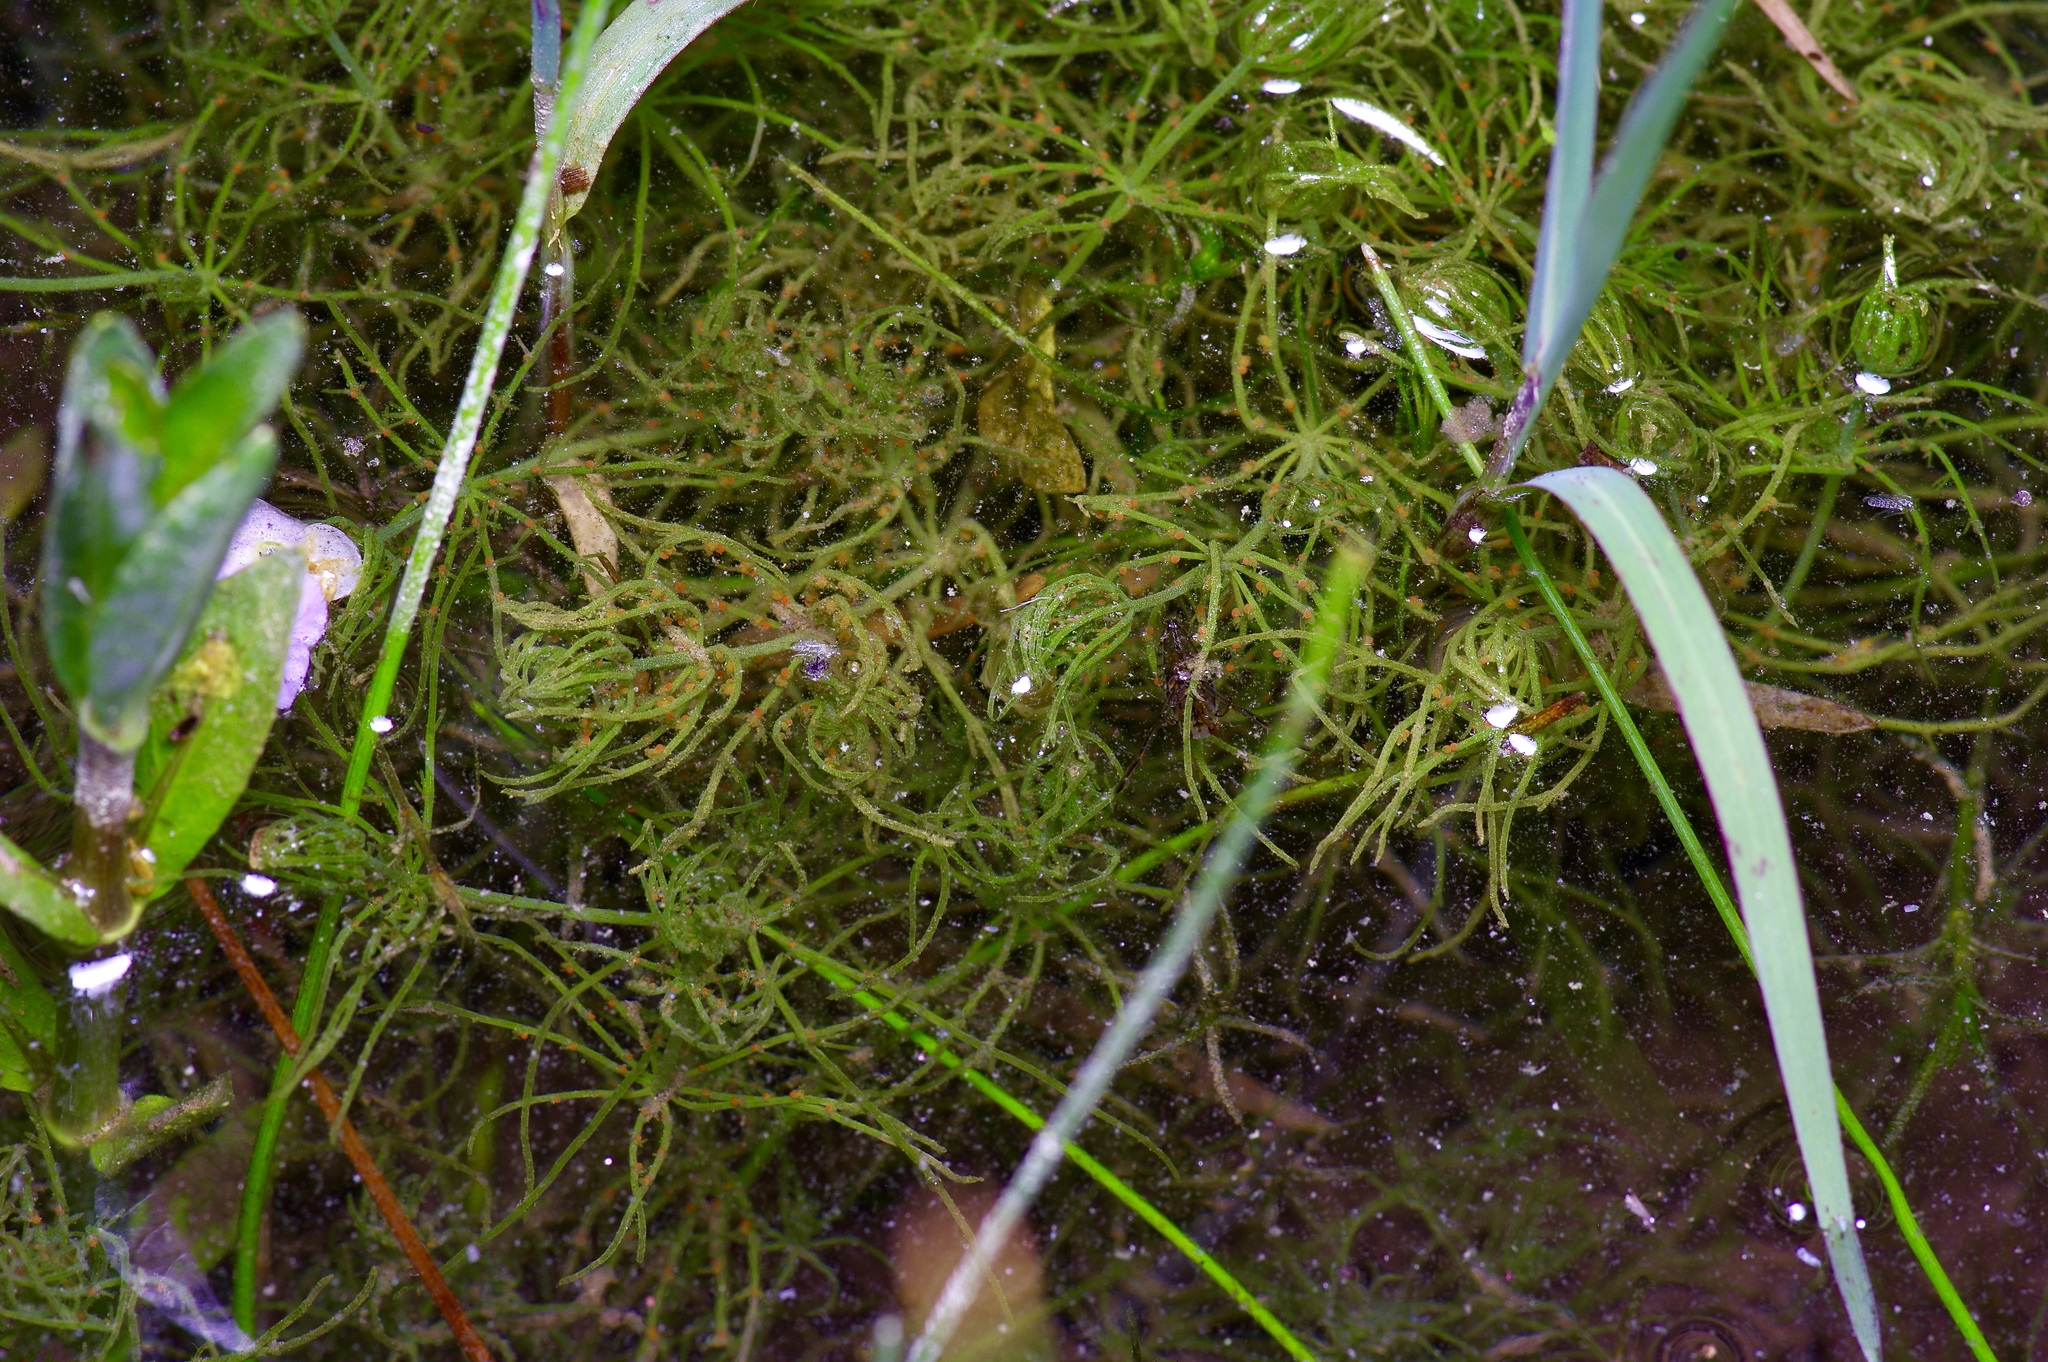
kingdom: Plantae
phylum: Charophyta
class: Charophyceae
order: Charales
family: Characeae
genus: Chara
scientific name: Chara contraria
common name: Opposite stonewort
